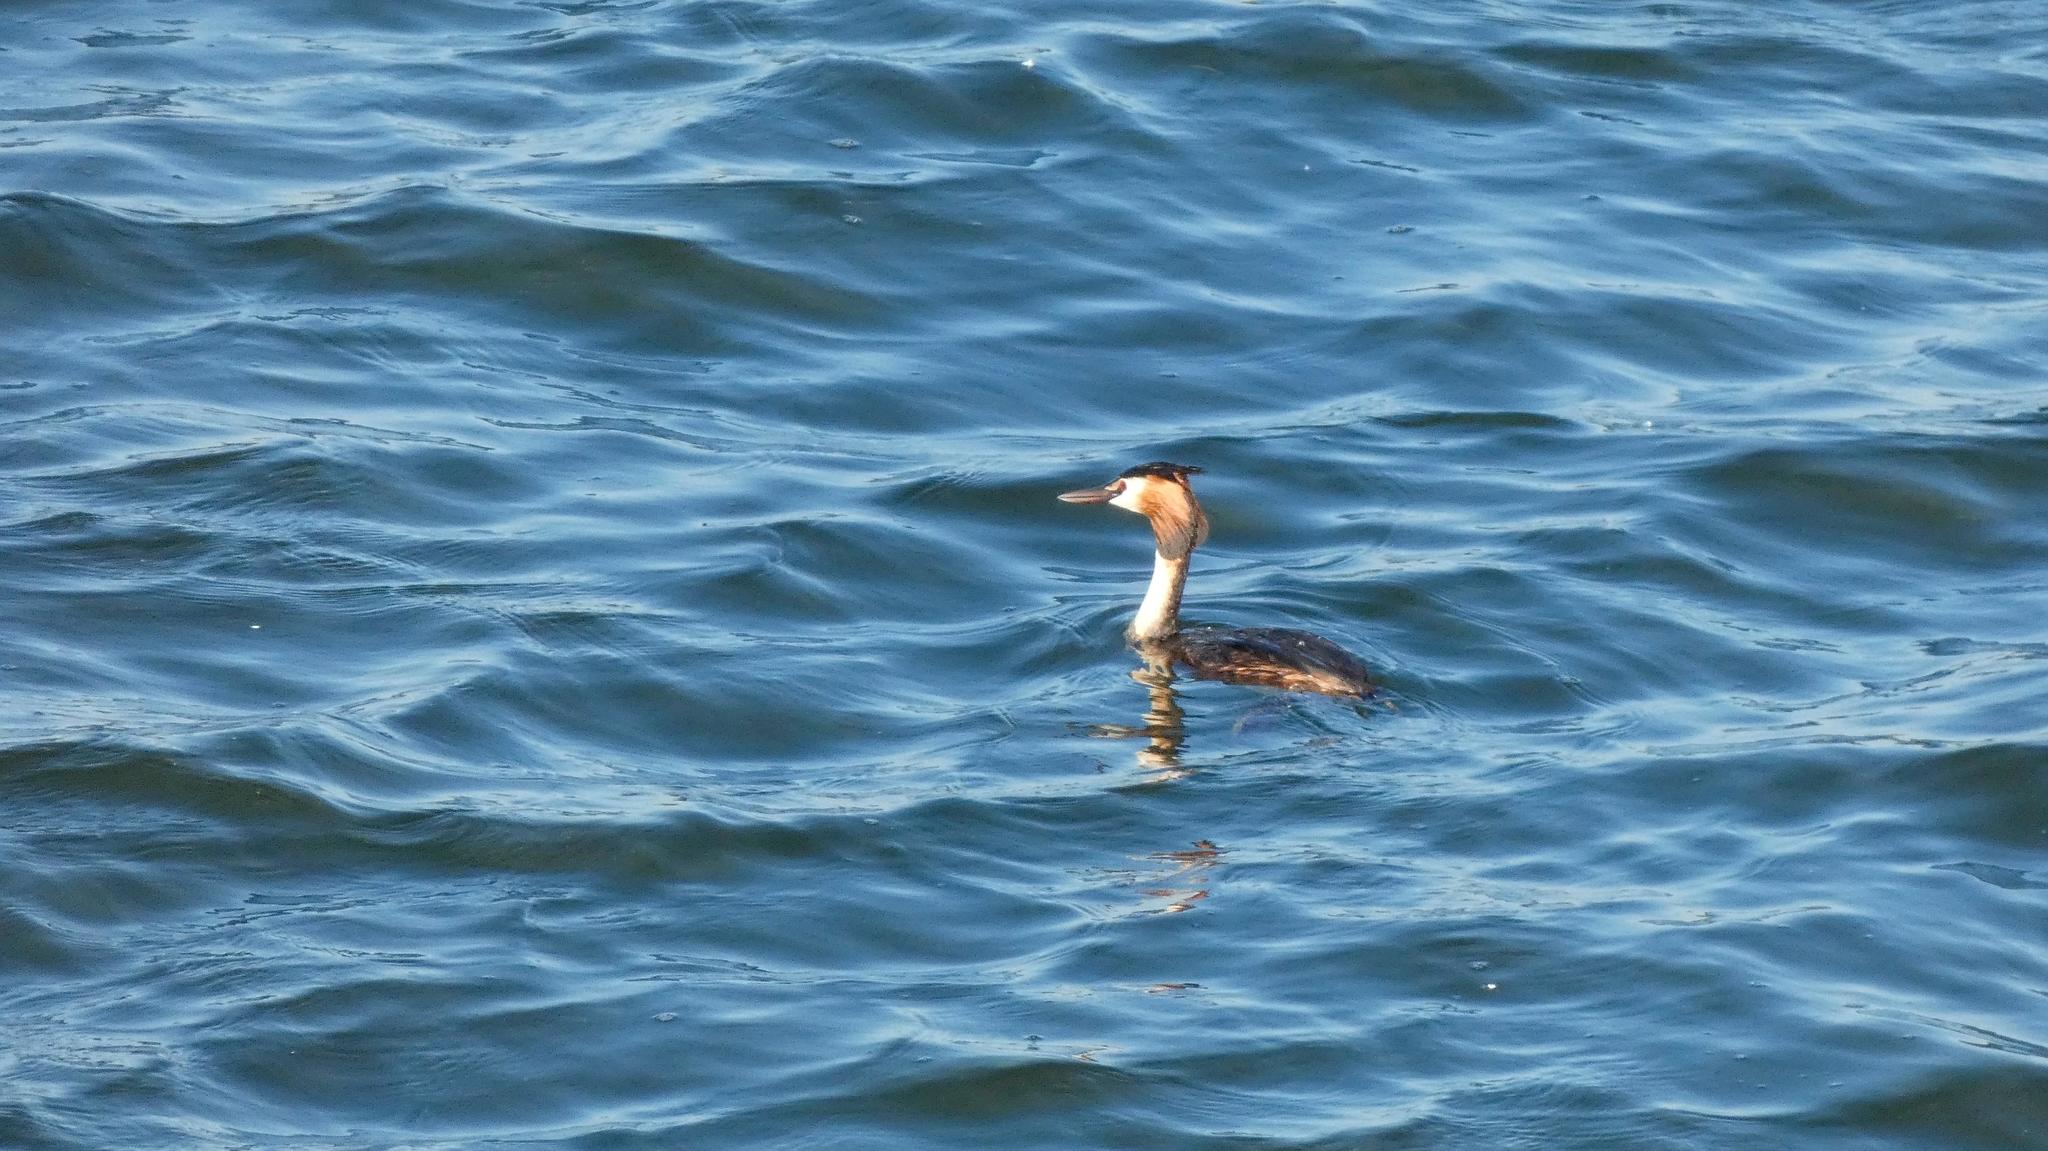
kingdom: Animalia
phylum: Chordata
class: Aves
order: Podicipediformes
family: Podicipedidae
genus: Podiceps
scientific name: Podiceps cristatus
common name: Great crested grebe
